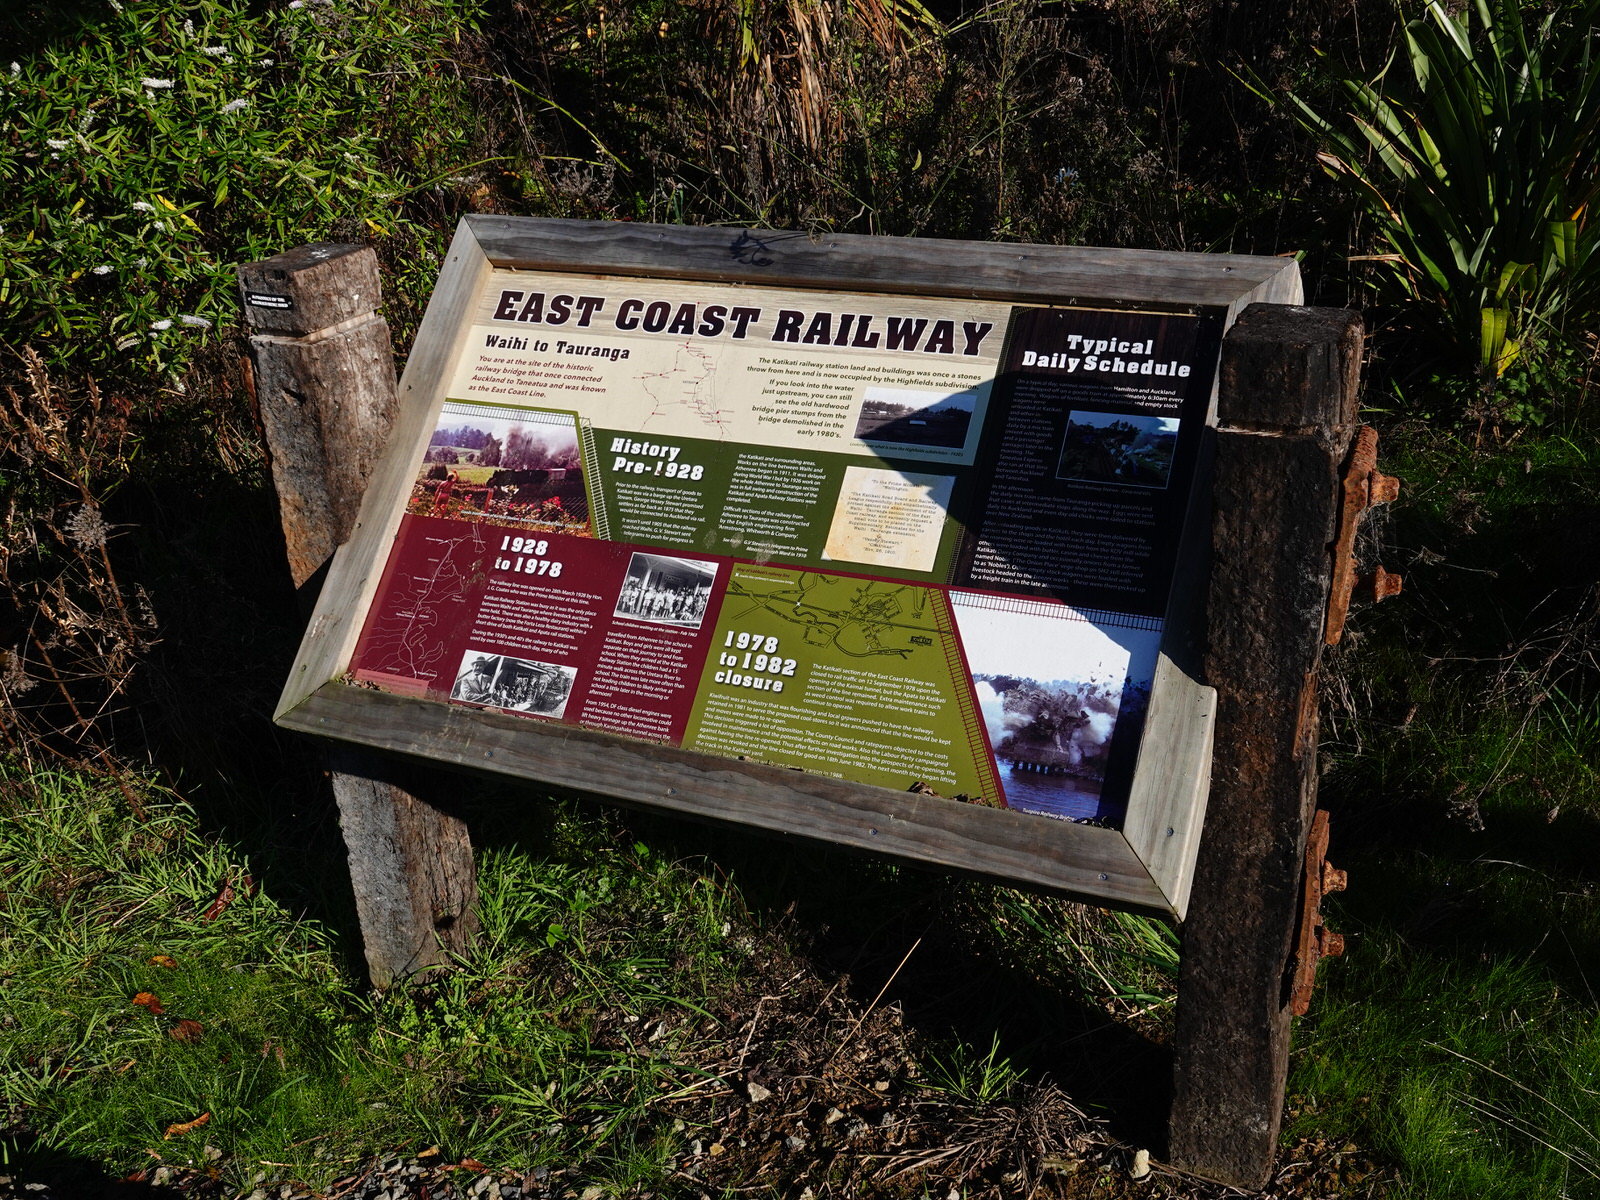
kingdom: Animalia
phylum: Arthropoda
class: Arachnida
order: Araneae
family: Corinnidae
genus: Nyssus
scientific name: Nyssus coloripes
